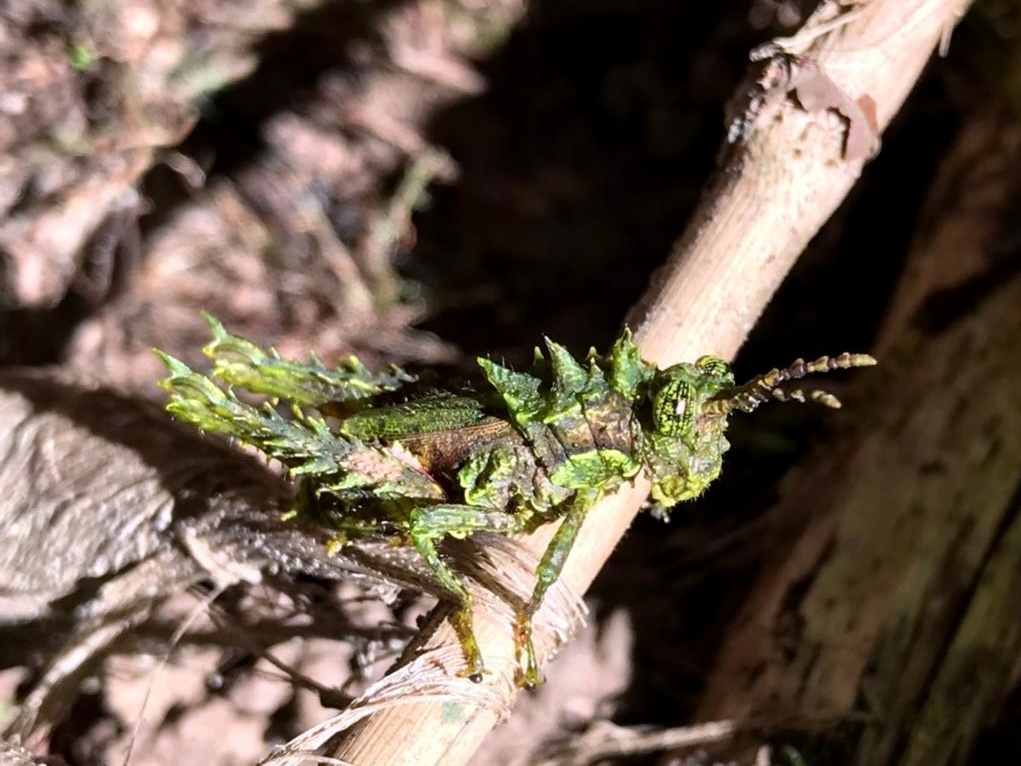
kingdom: Animalia
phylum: Arthropoda
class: Insecta
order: Orthoptera
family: Acrididae
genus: Nicarchus
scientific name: Nicarchus erinaceus
